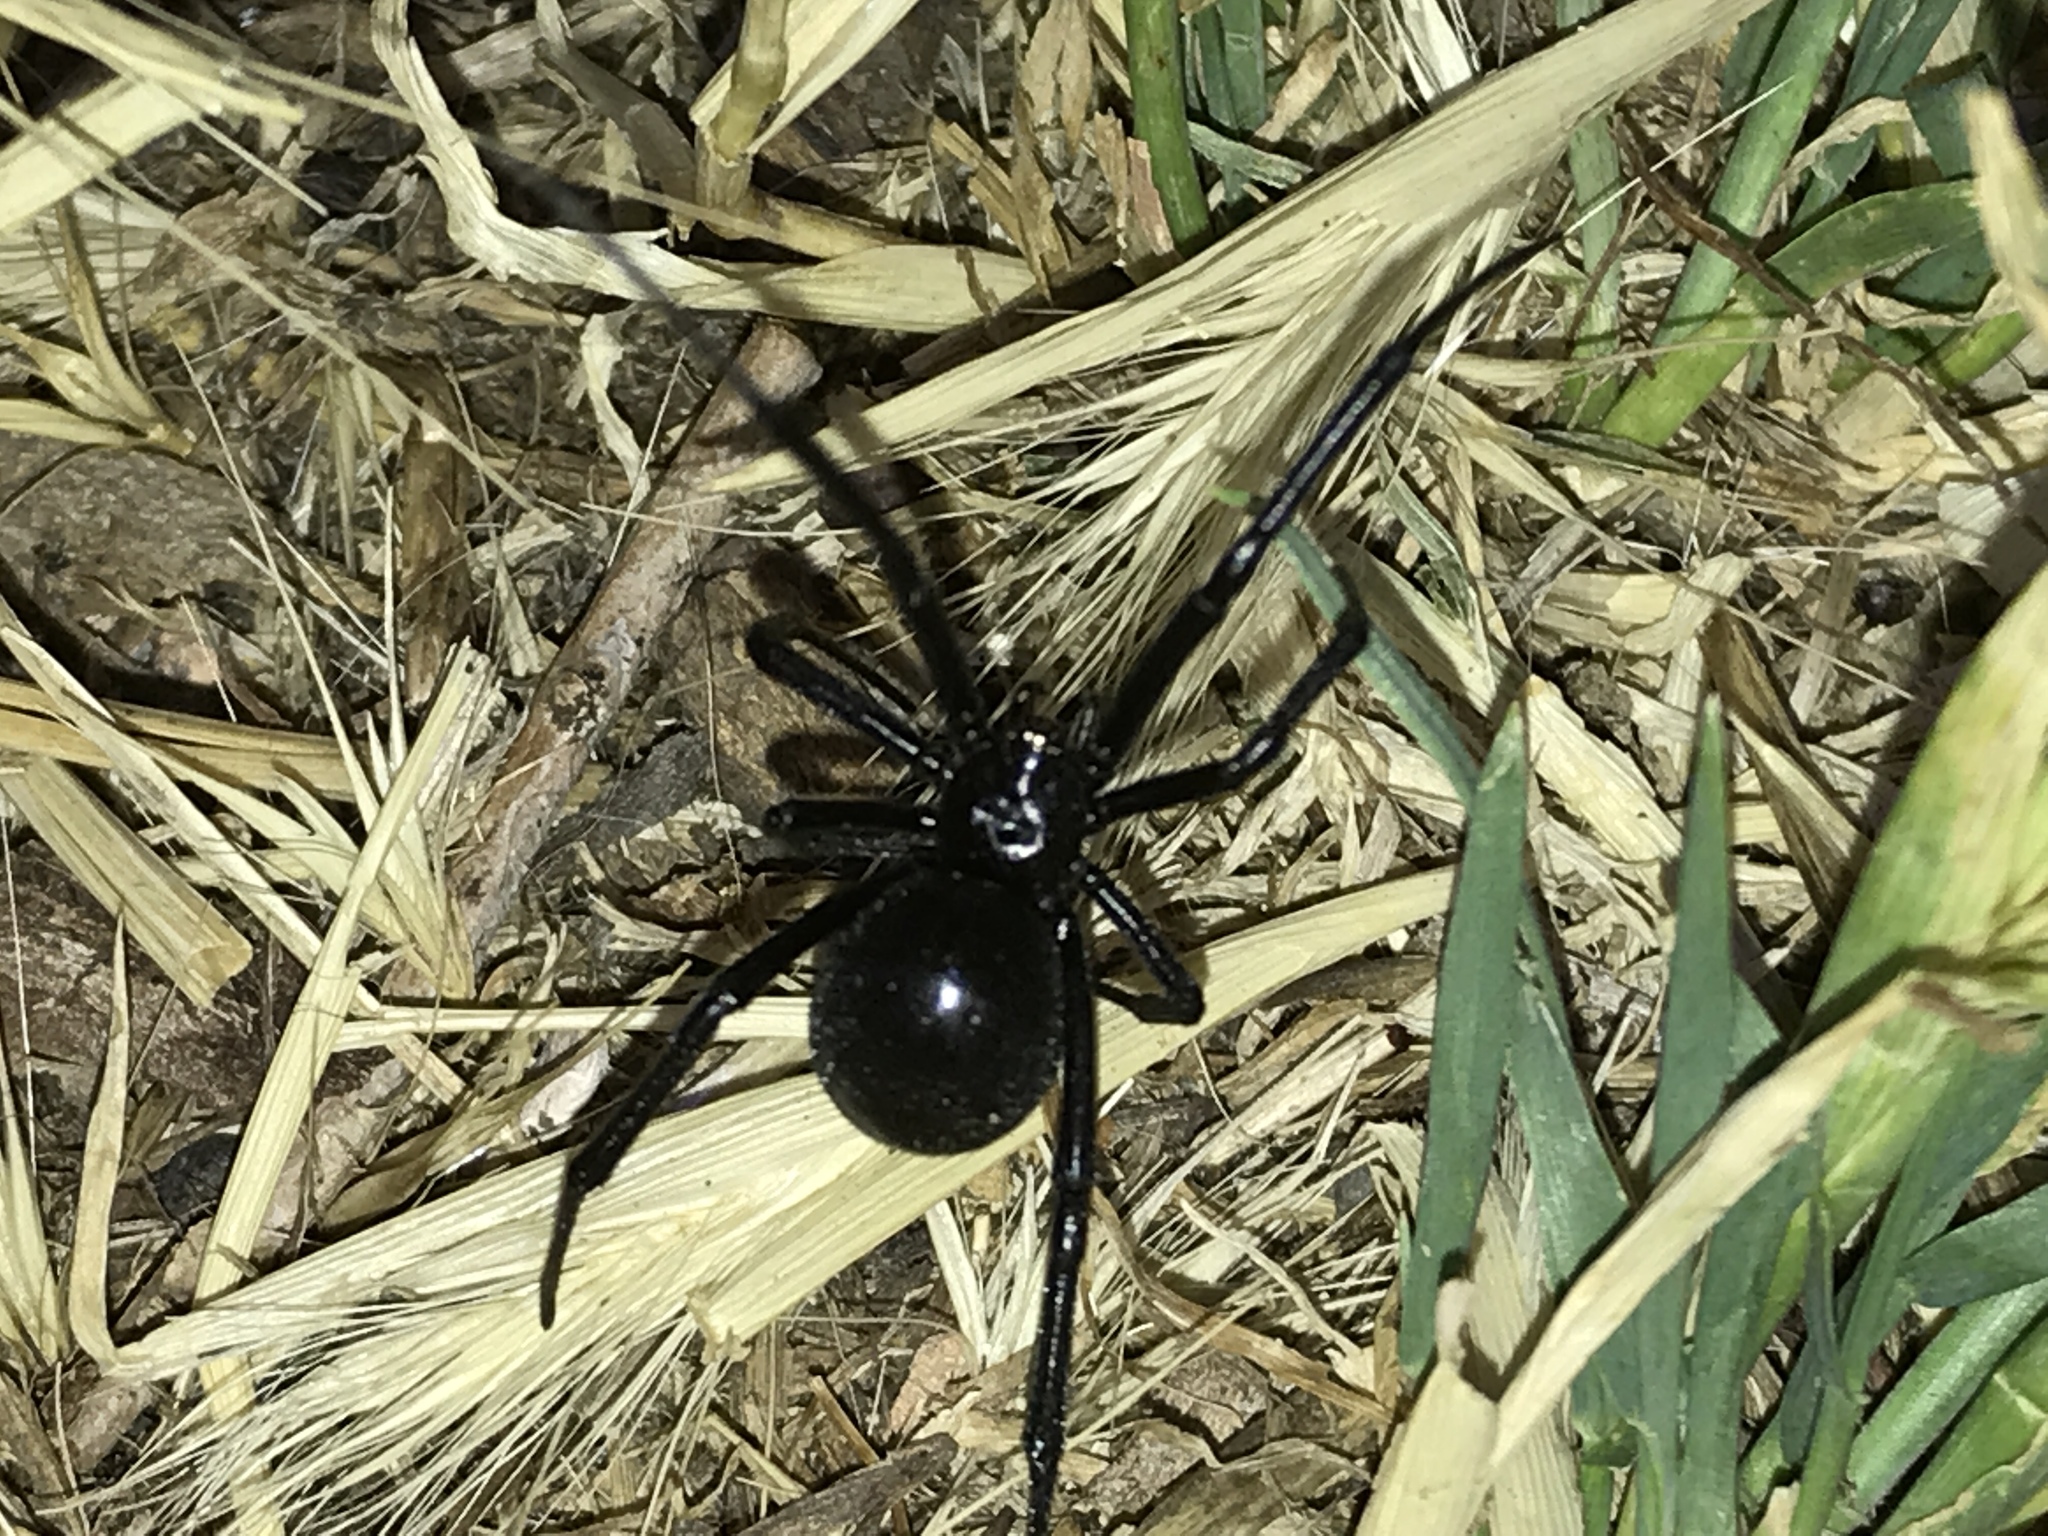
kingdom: Animalia
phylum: Arthropoda
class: Arachnida
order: Araneae
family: Theridiidae
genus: Latrodectus
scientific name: Latrodectus hesperus
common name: Western black widow
